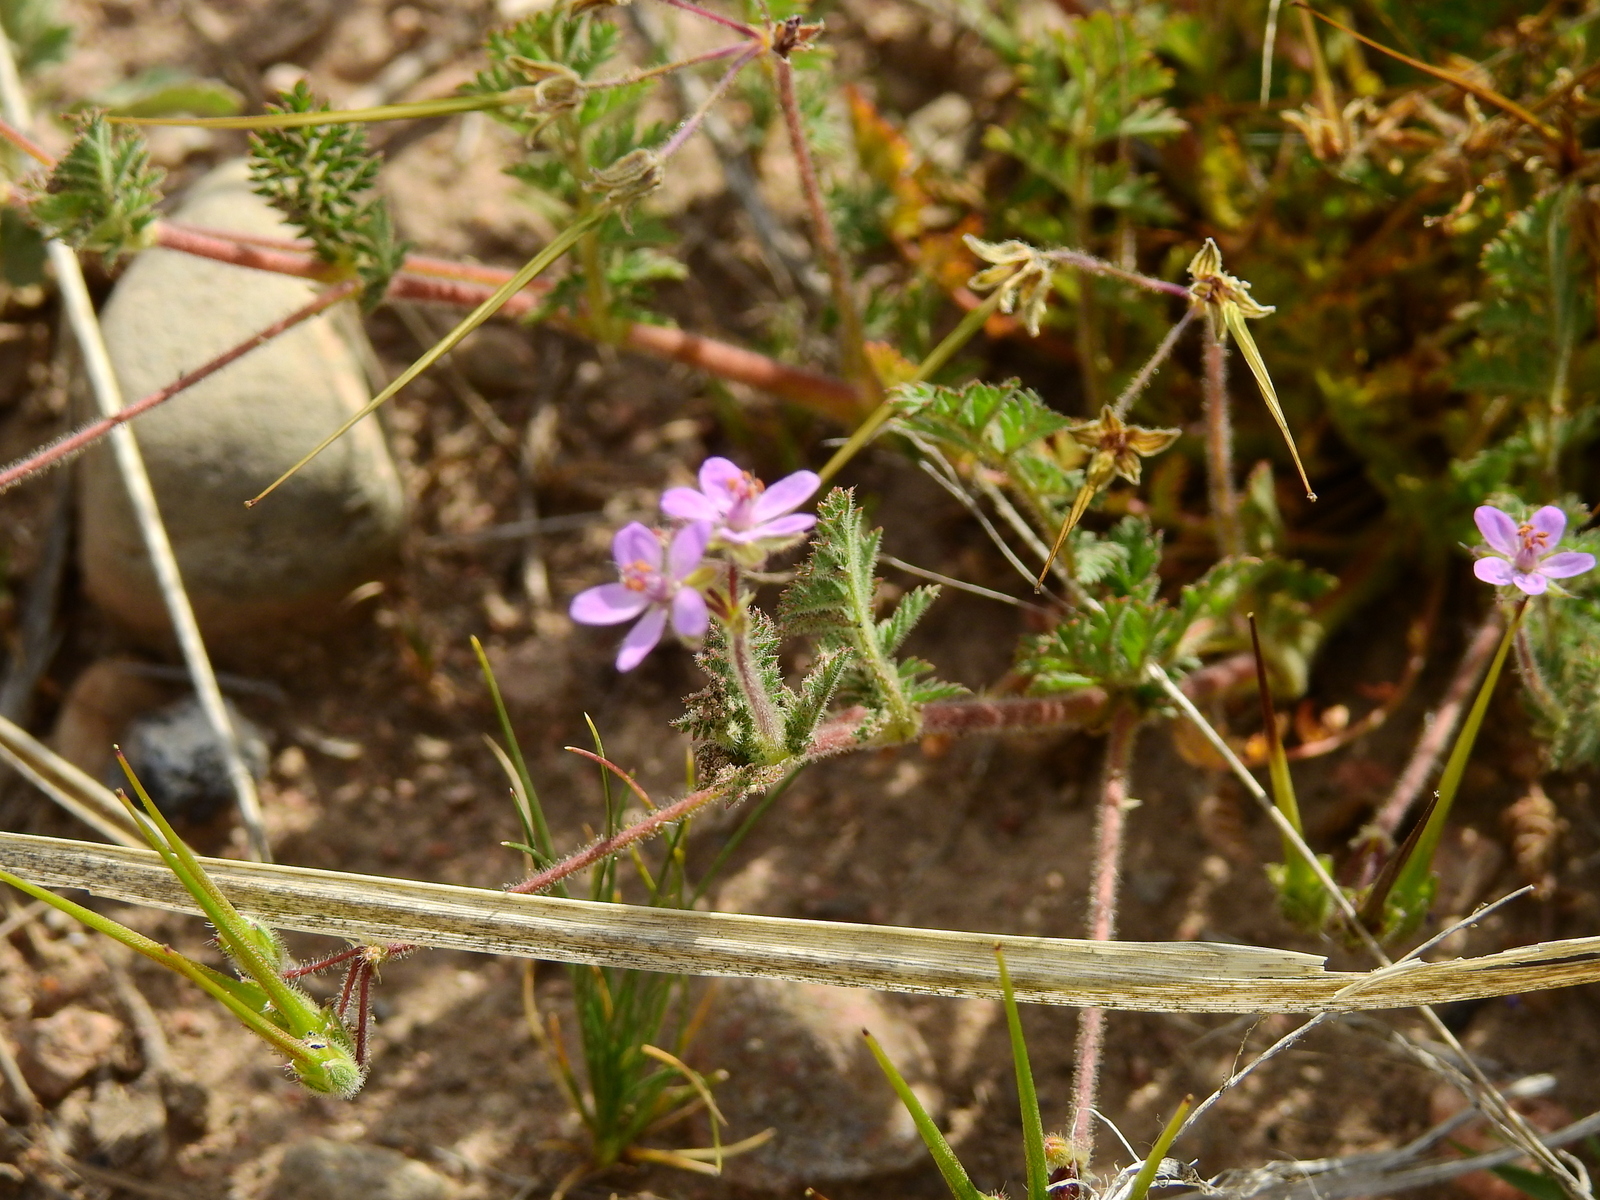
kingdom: Plantae
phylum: Tracheophyta
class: Magnoliopsida
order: Geraniales
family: Geraniaceae
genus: Erodium
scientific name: Erodium cicutarium
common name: Common stork's-bill
